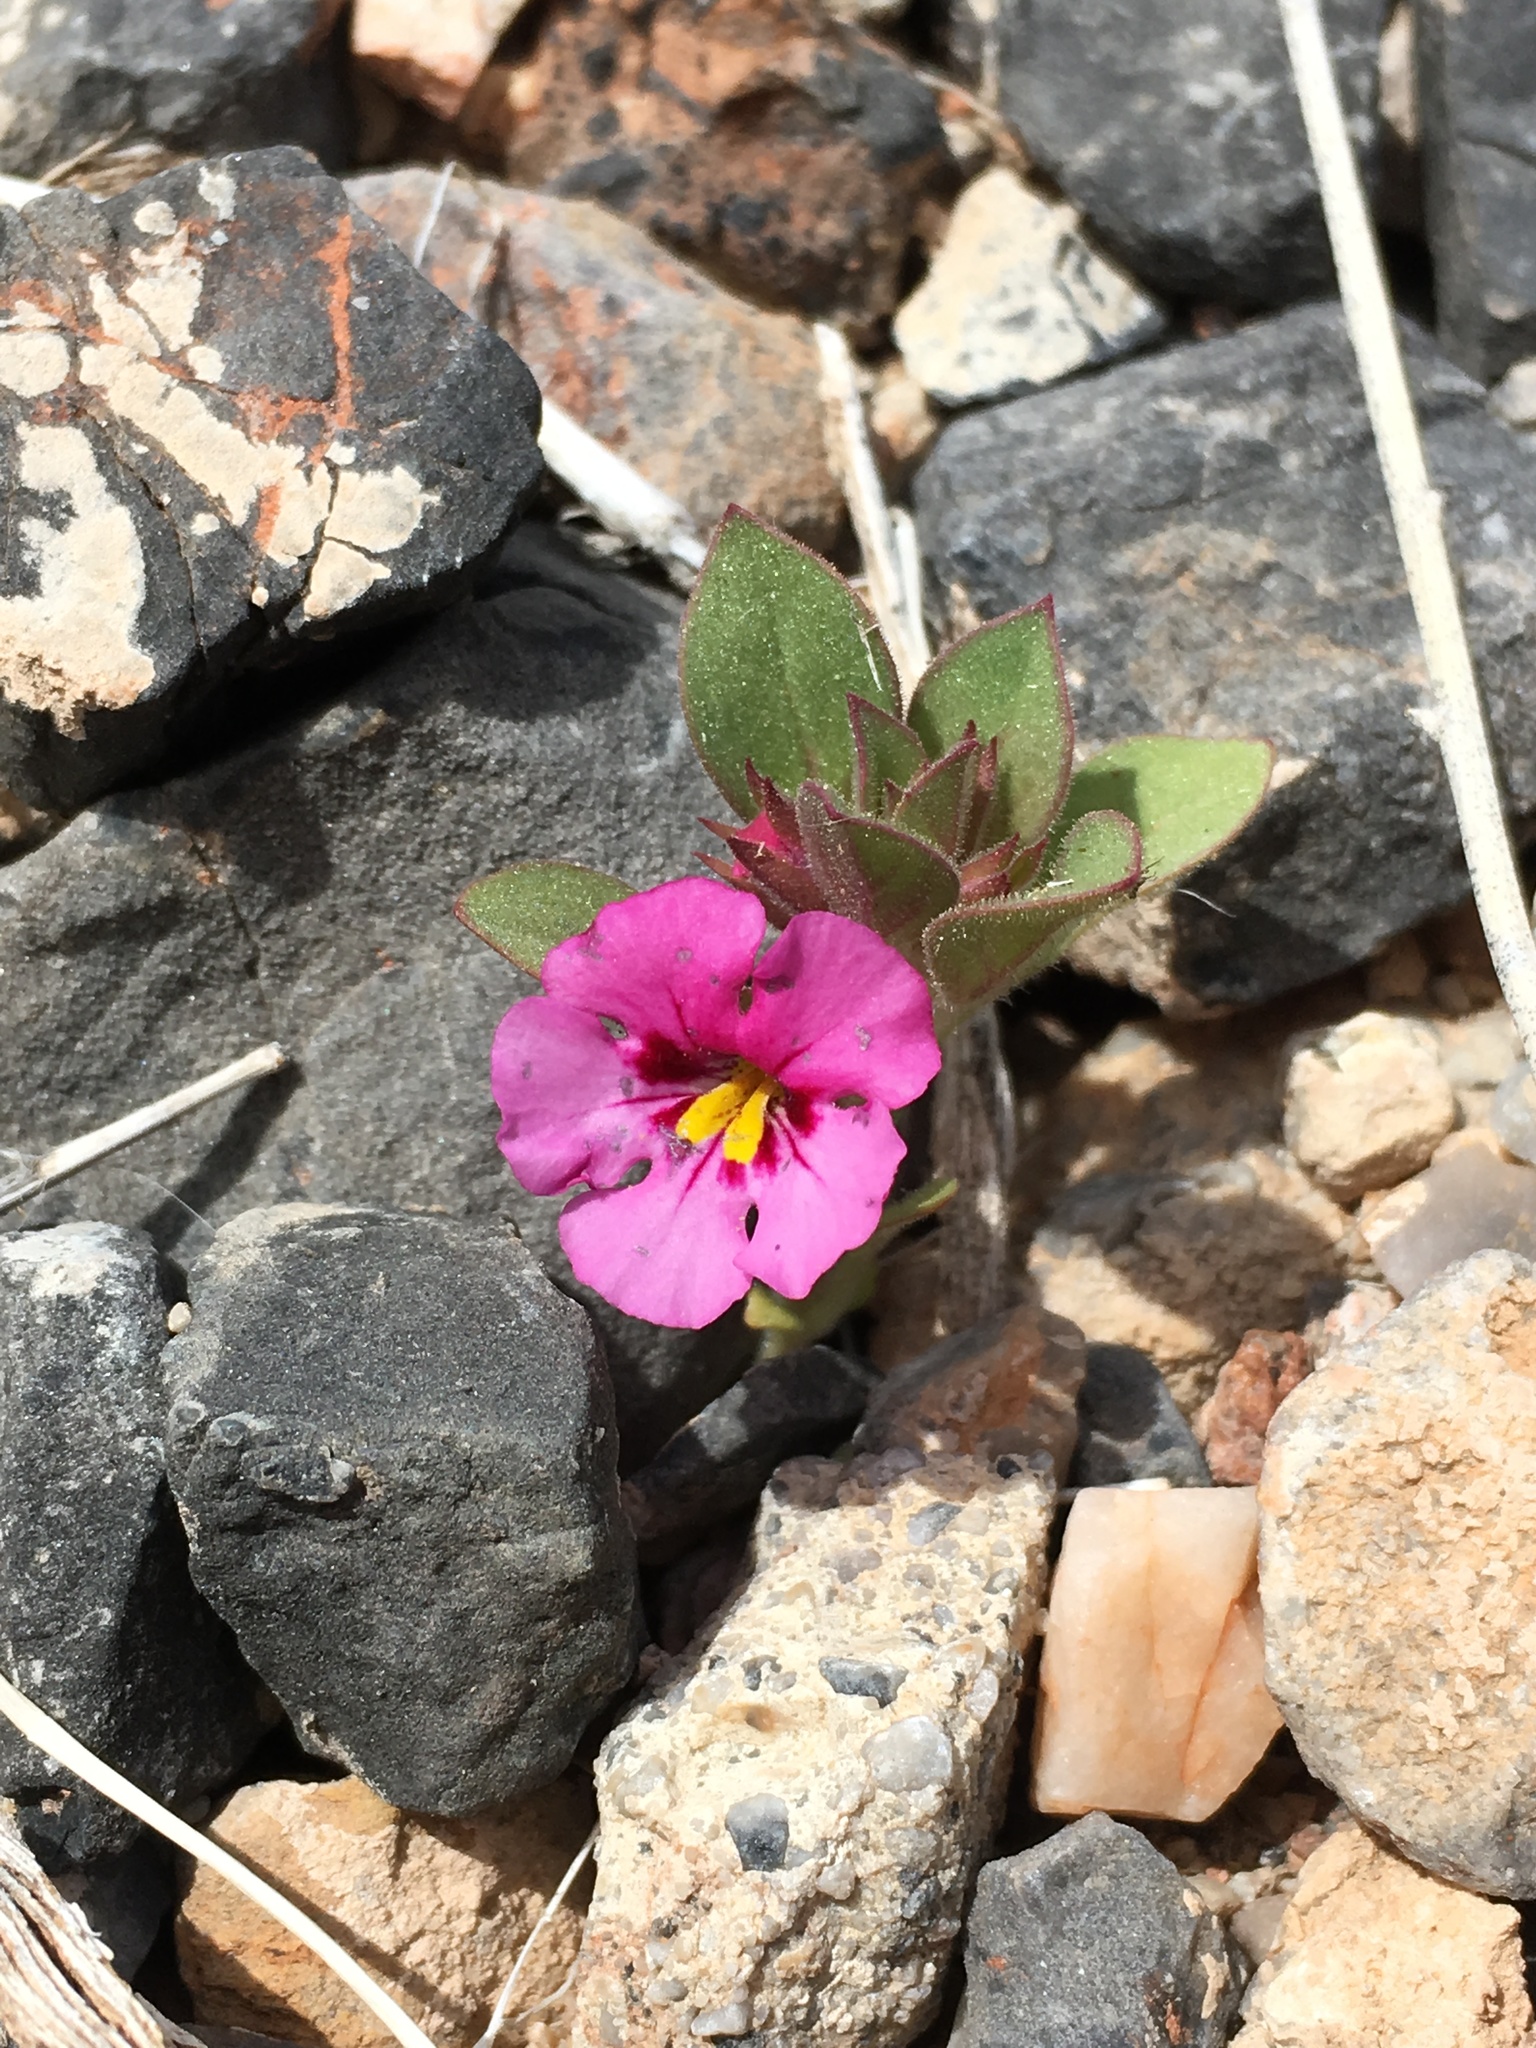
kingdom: Plantae
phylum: Tracheophyta
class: Magnoliopsida
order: Lamiales
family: Phrymaceae
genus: Diplacus
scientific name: Diplacus bigelovii
